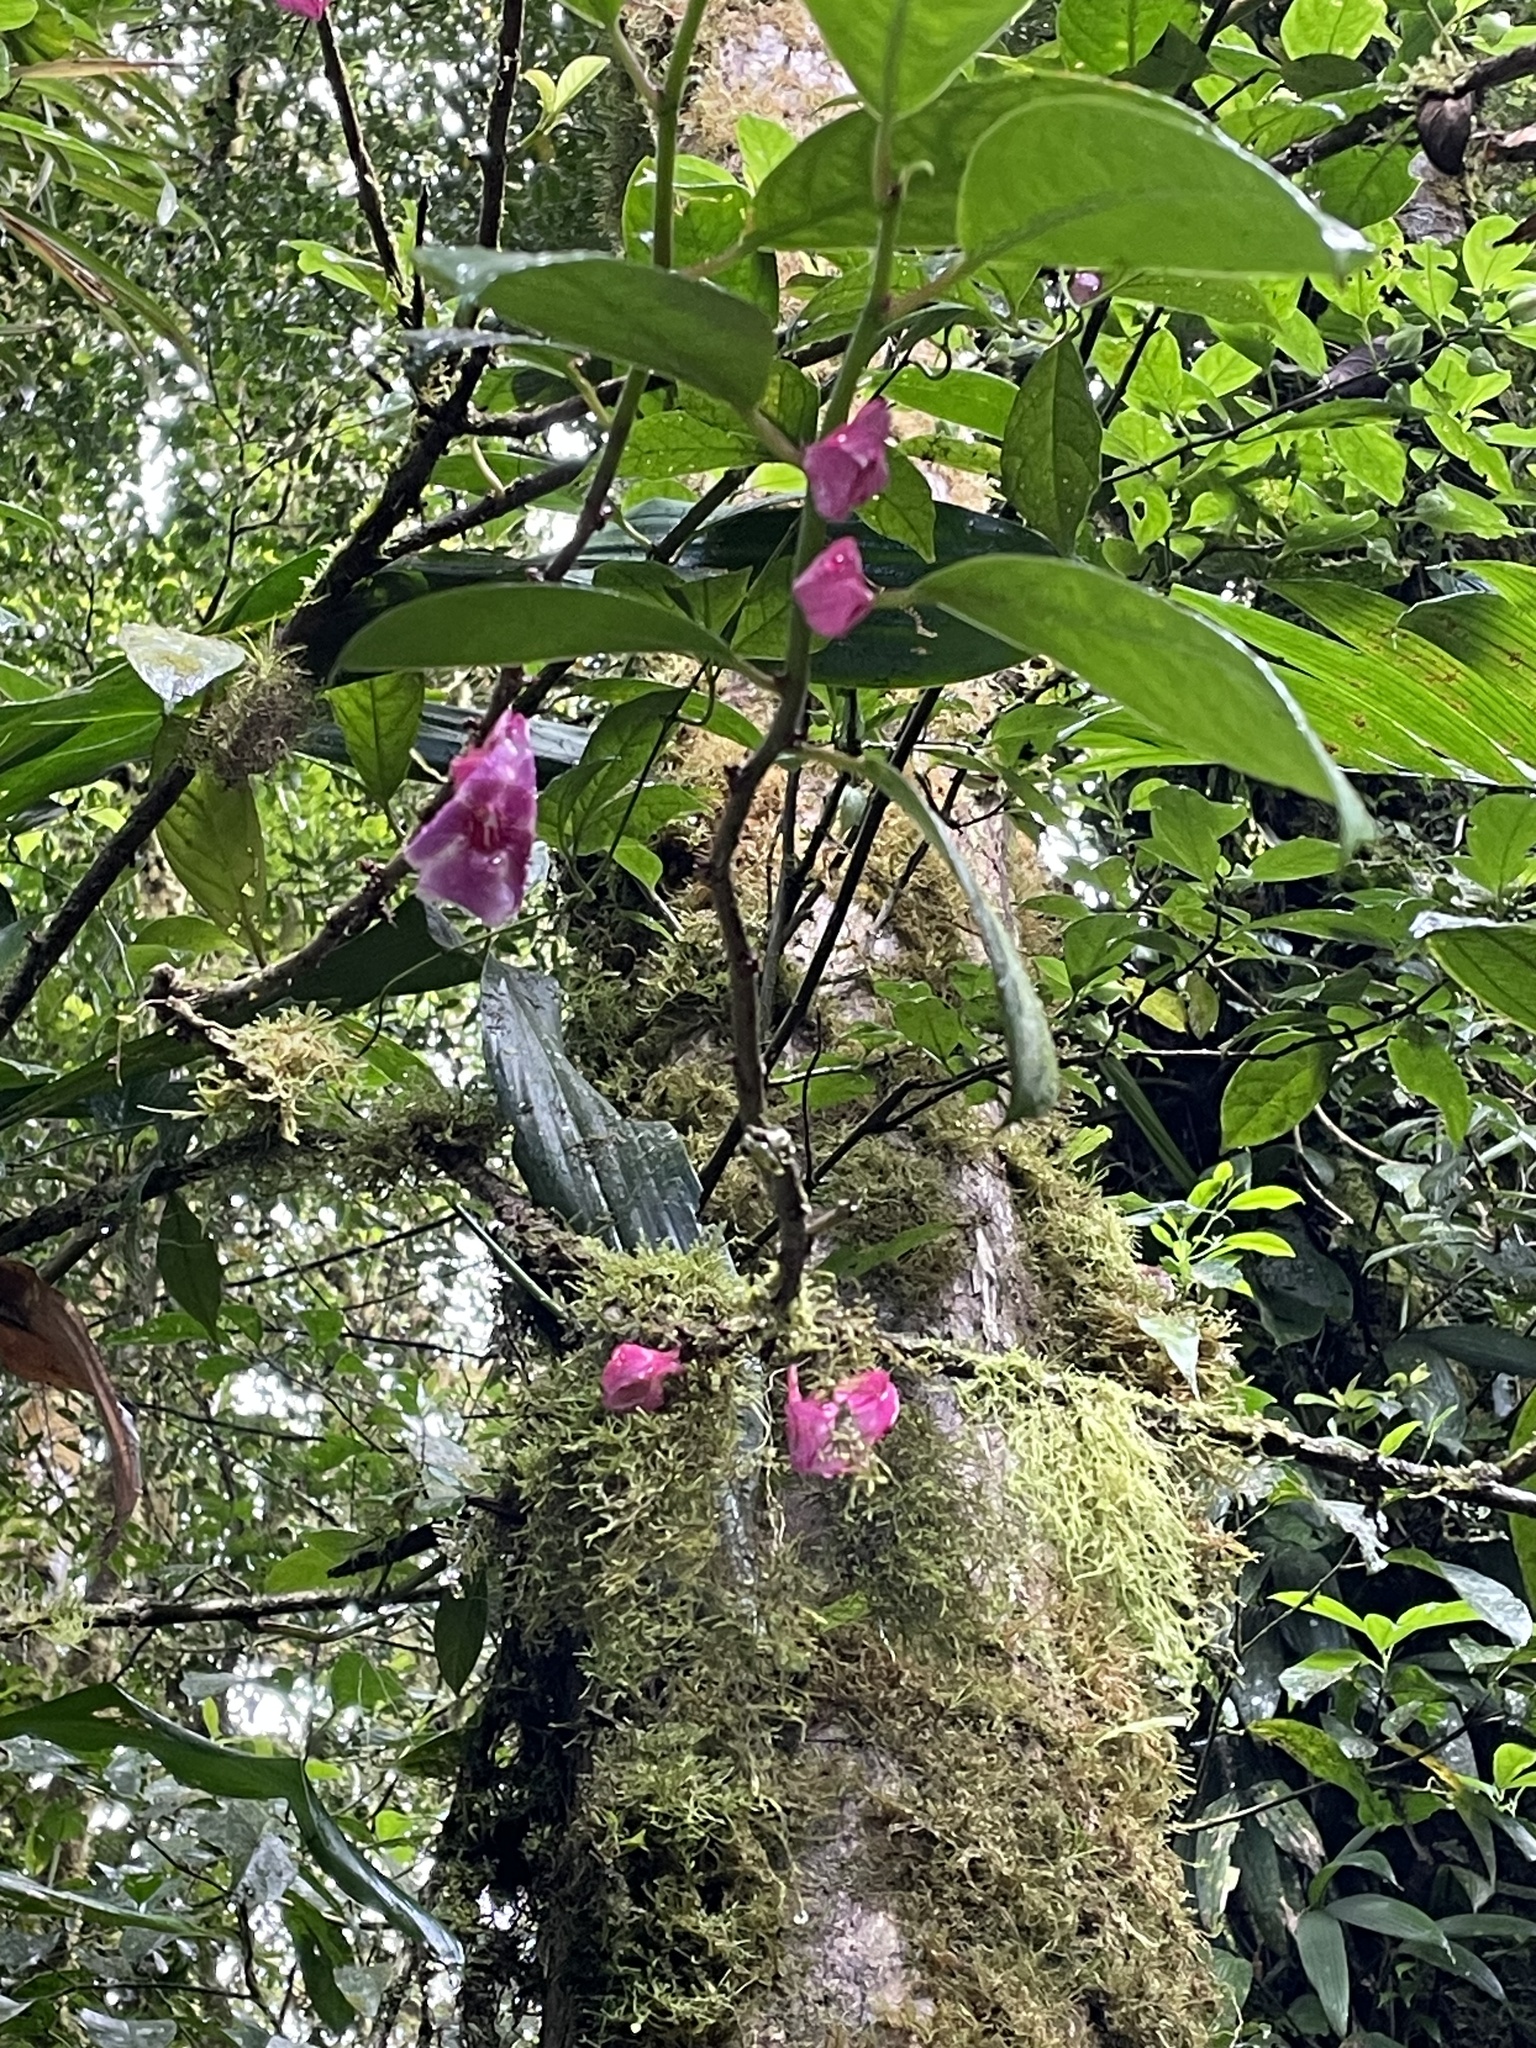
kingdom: Plantae
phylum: Tracheophyta
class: Magnoliopsida
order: Lamiales
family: Gesneriaceae
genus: Drymonia
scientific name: Drymonia conchocalyx
